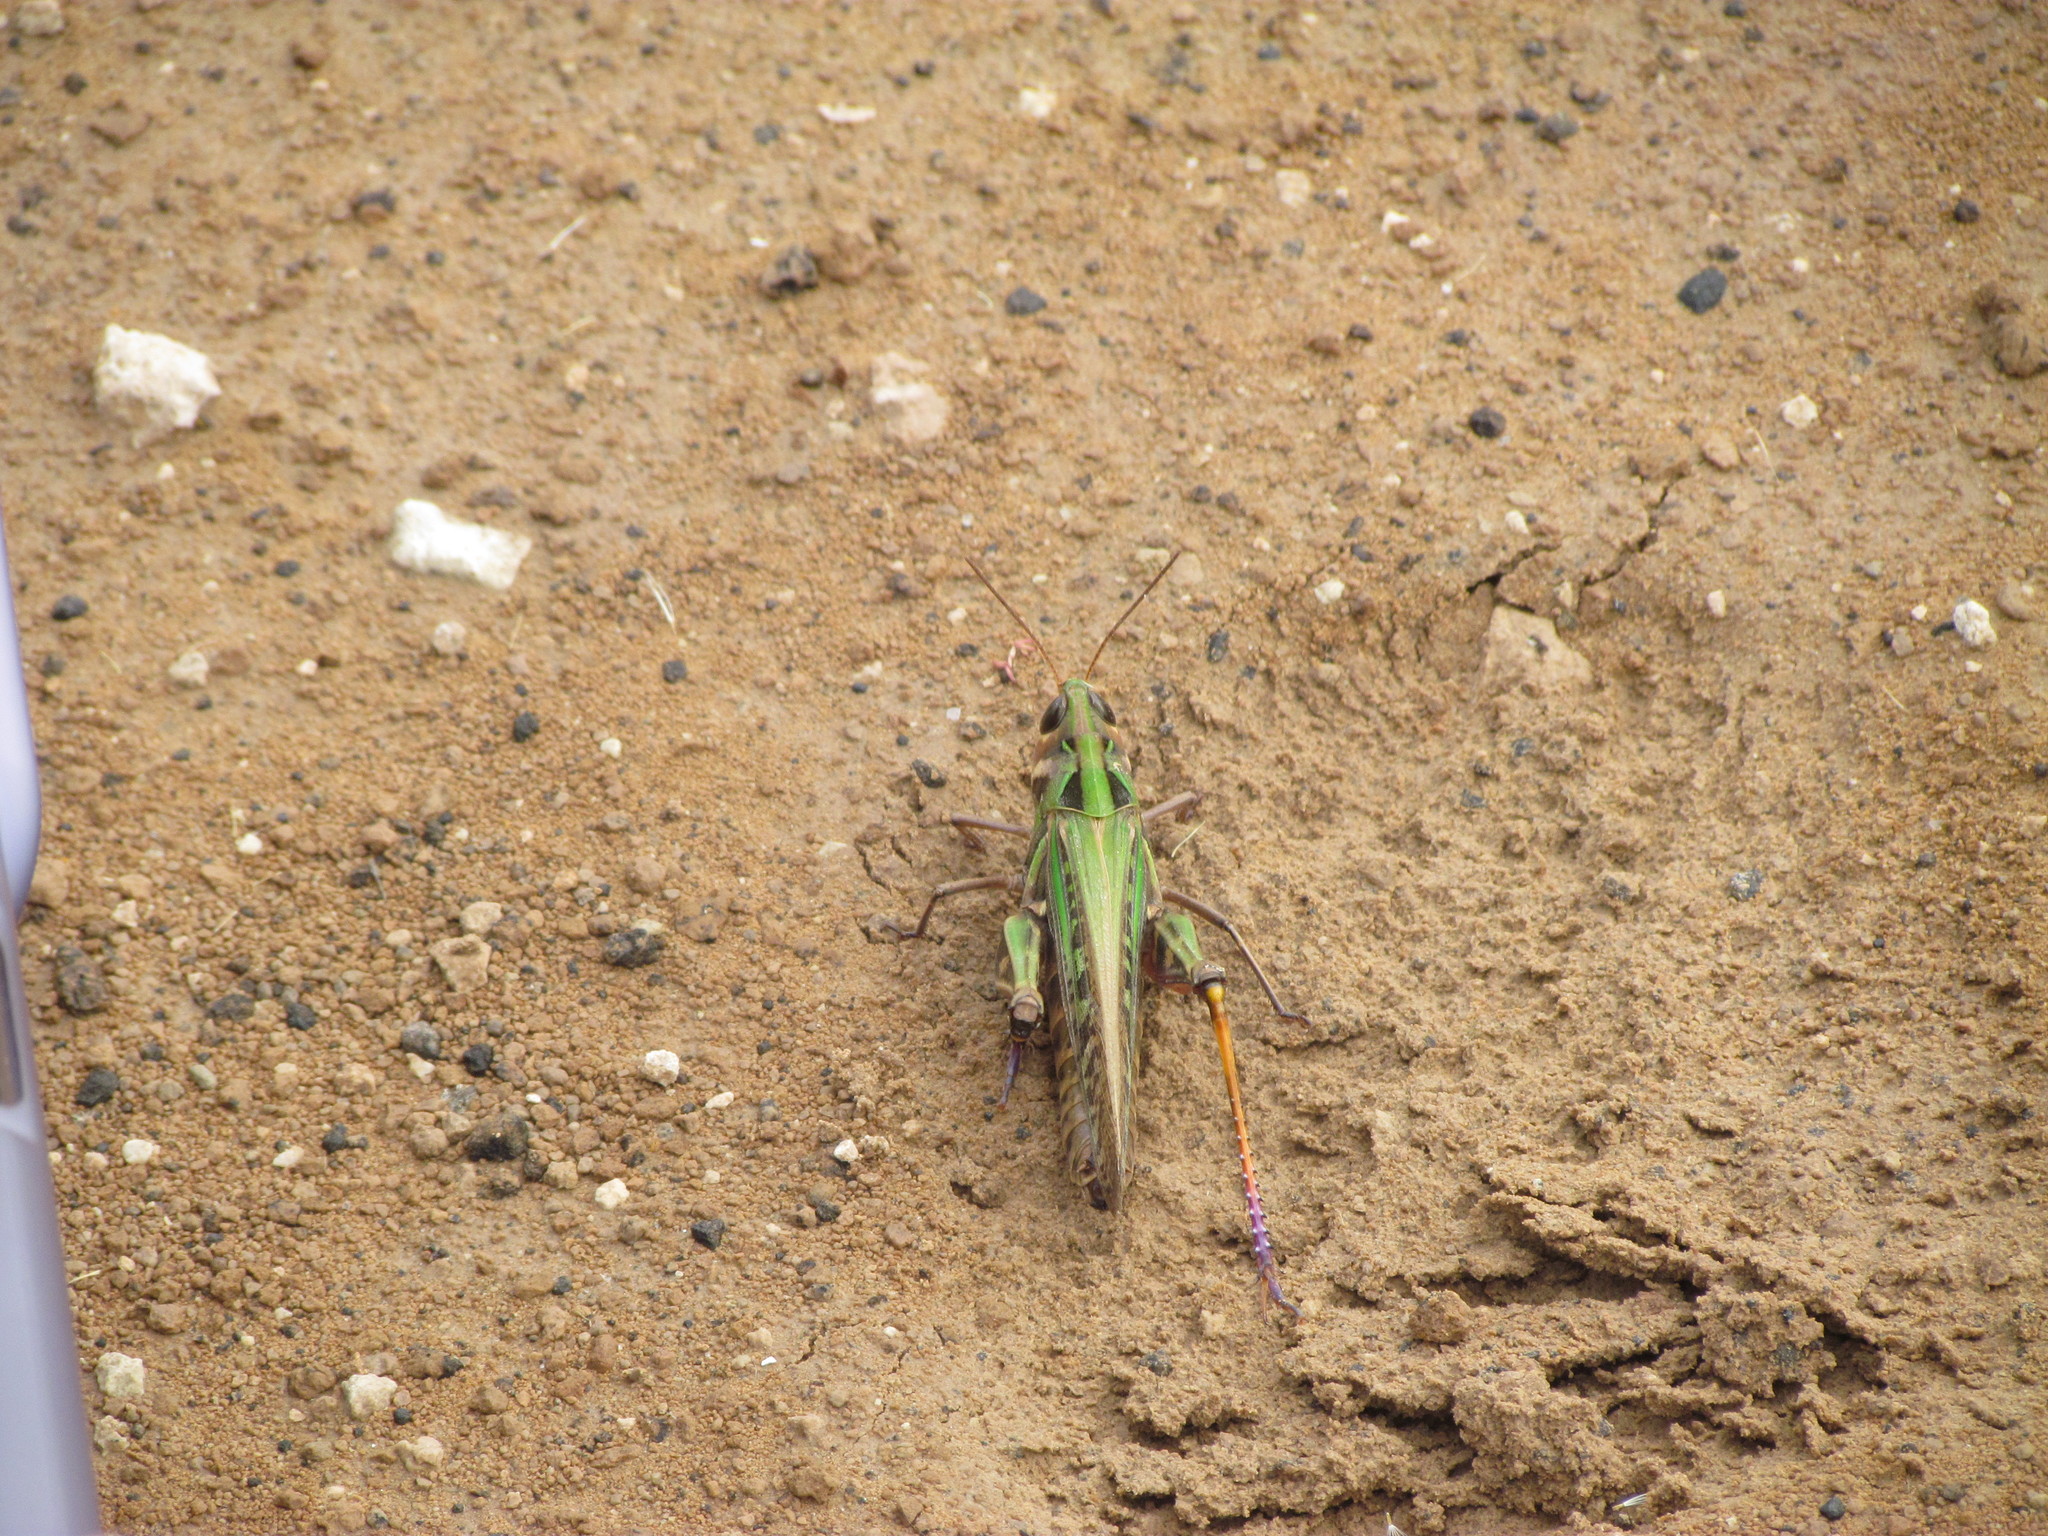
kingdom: Animalia
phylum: Arthropoda
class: Insecta
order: Orthoptera
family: Acrididae
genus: Rhammatocerus
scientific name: Rhammatocerus pictus
